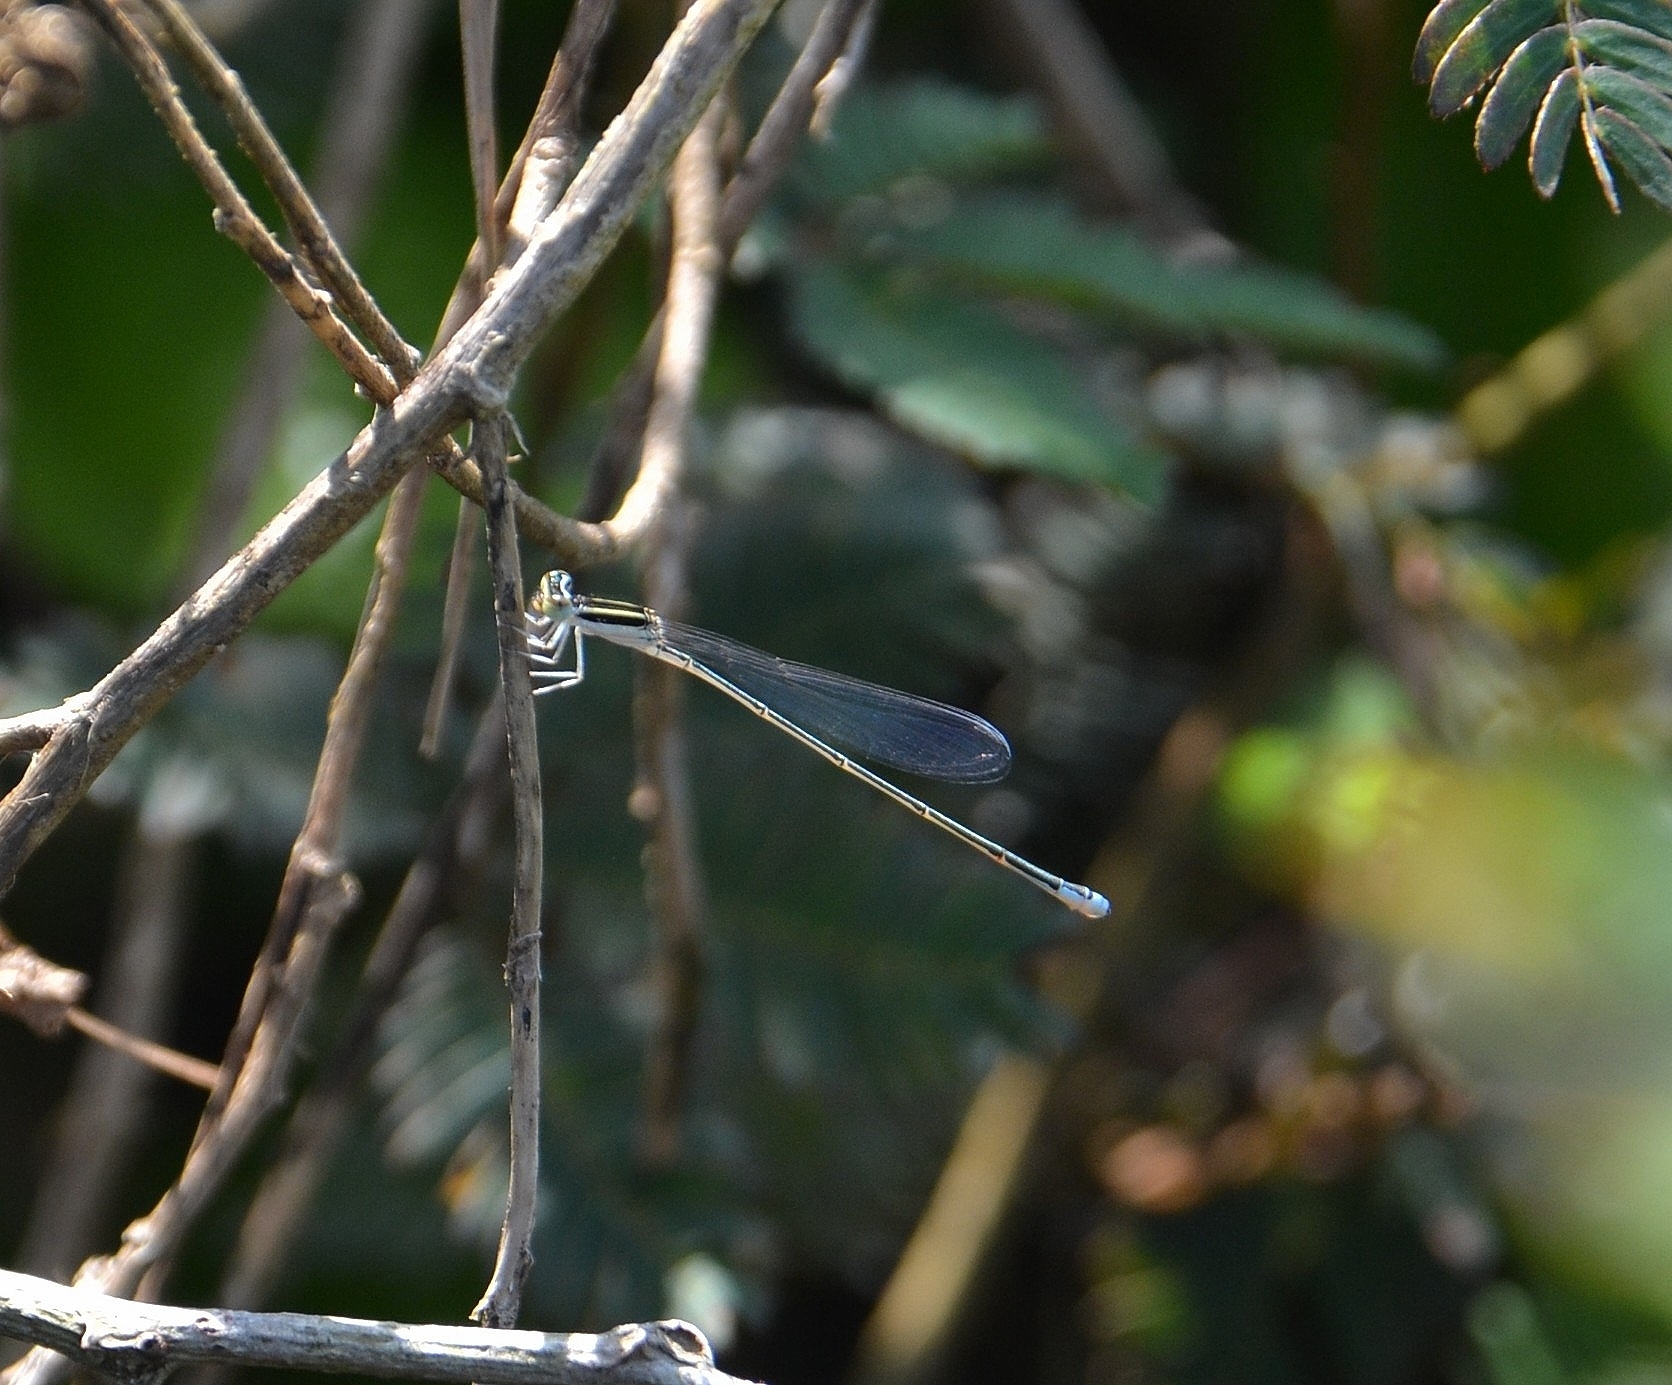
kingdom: Animalia
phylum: Arthropoda
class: Insecta
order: Odonata
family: Coenagrionidae
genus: Aciagrion
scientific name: Aciagrion occidentale
